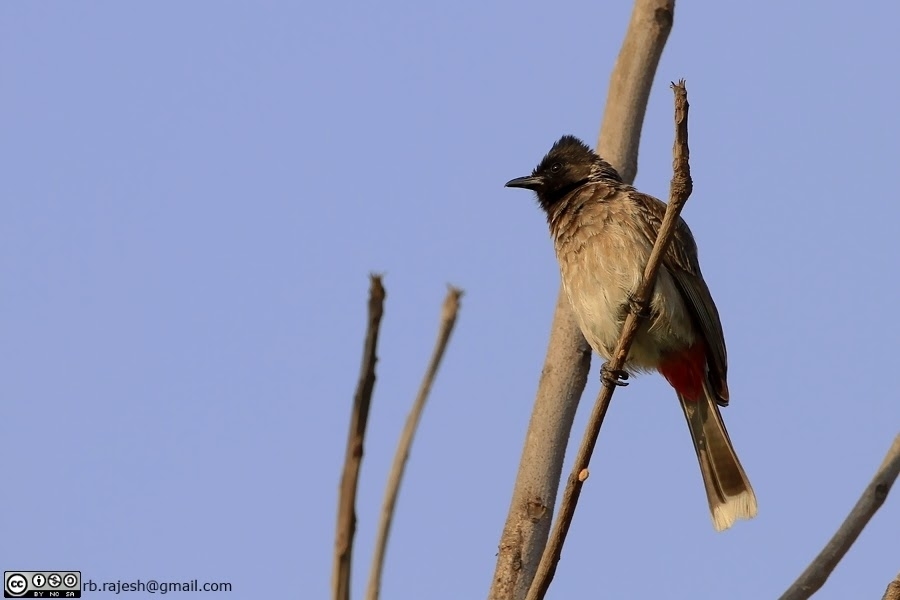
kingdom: Animalia
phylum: Chordata
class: Aves
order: Passeriformes
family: Pycnonotidae
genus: Pycnonotus
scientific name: Pycnonotus cafer
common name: Red-vented bulbul
